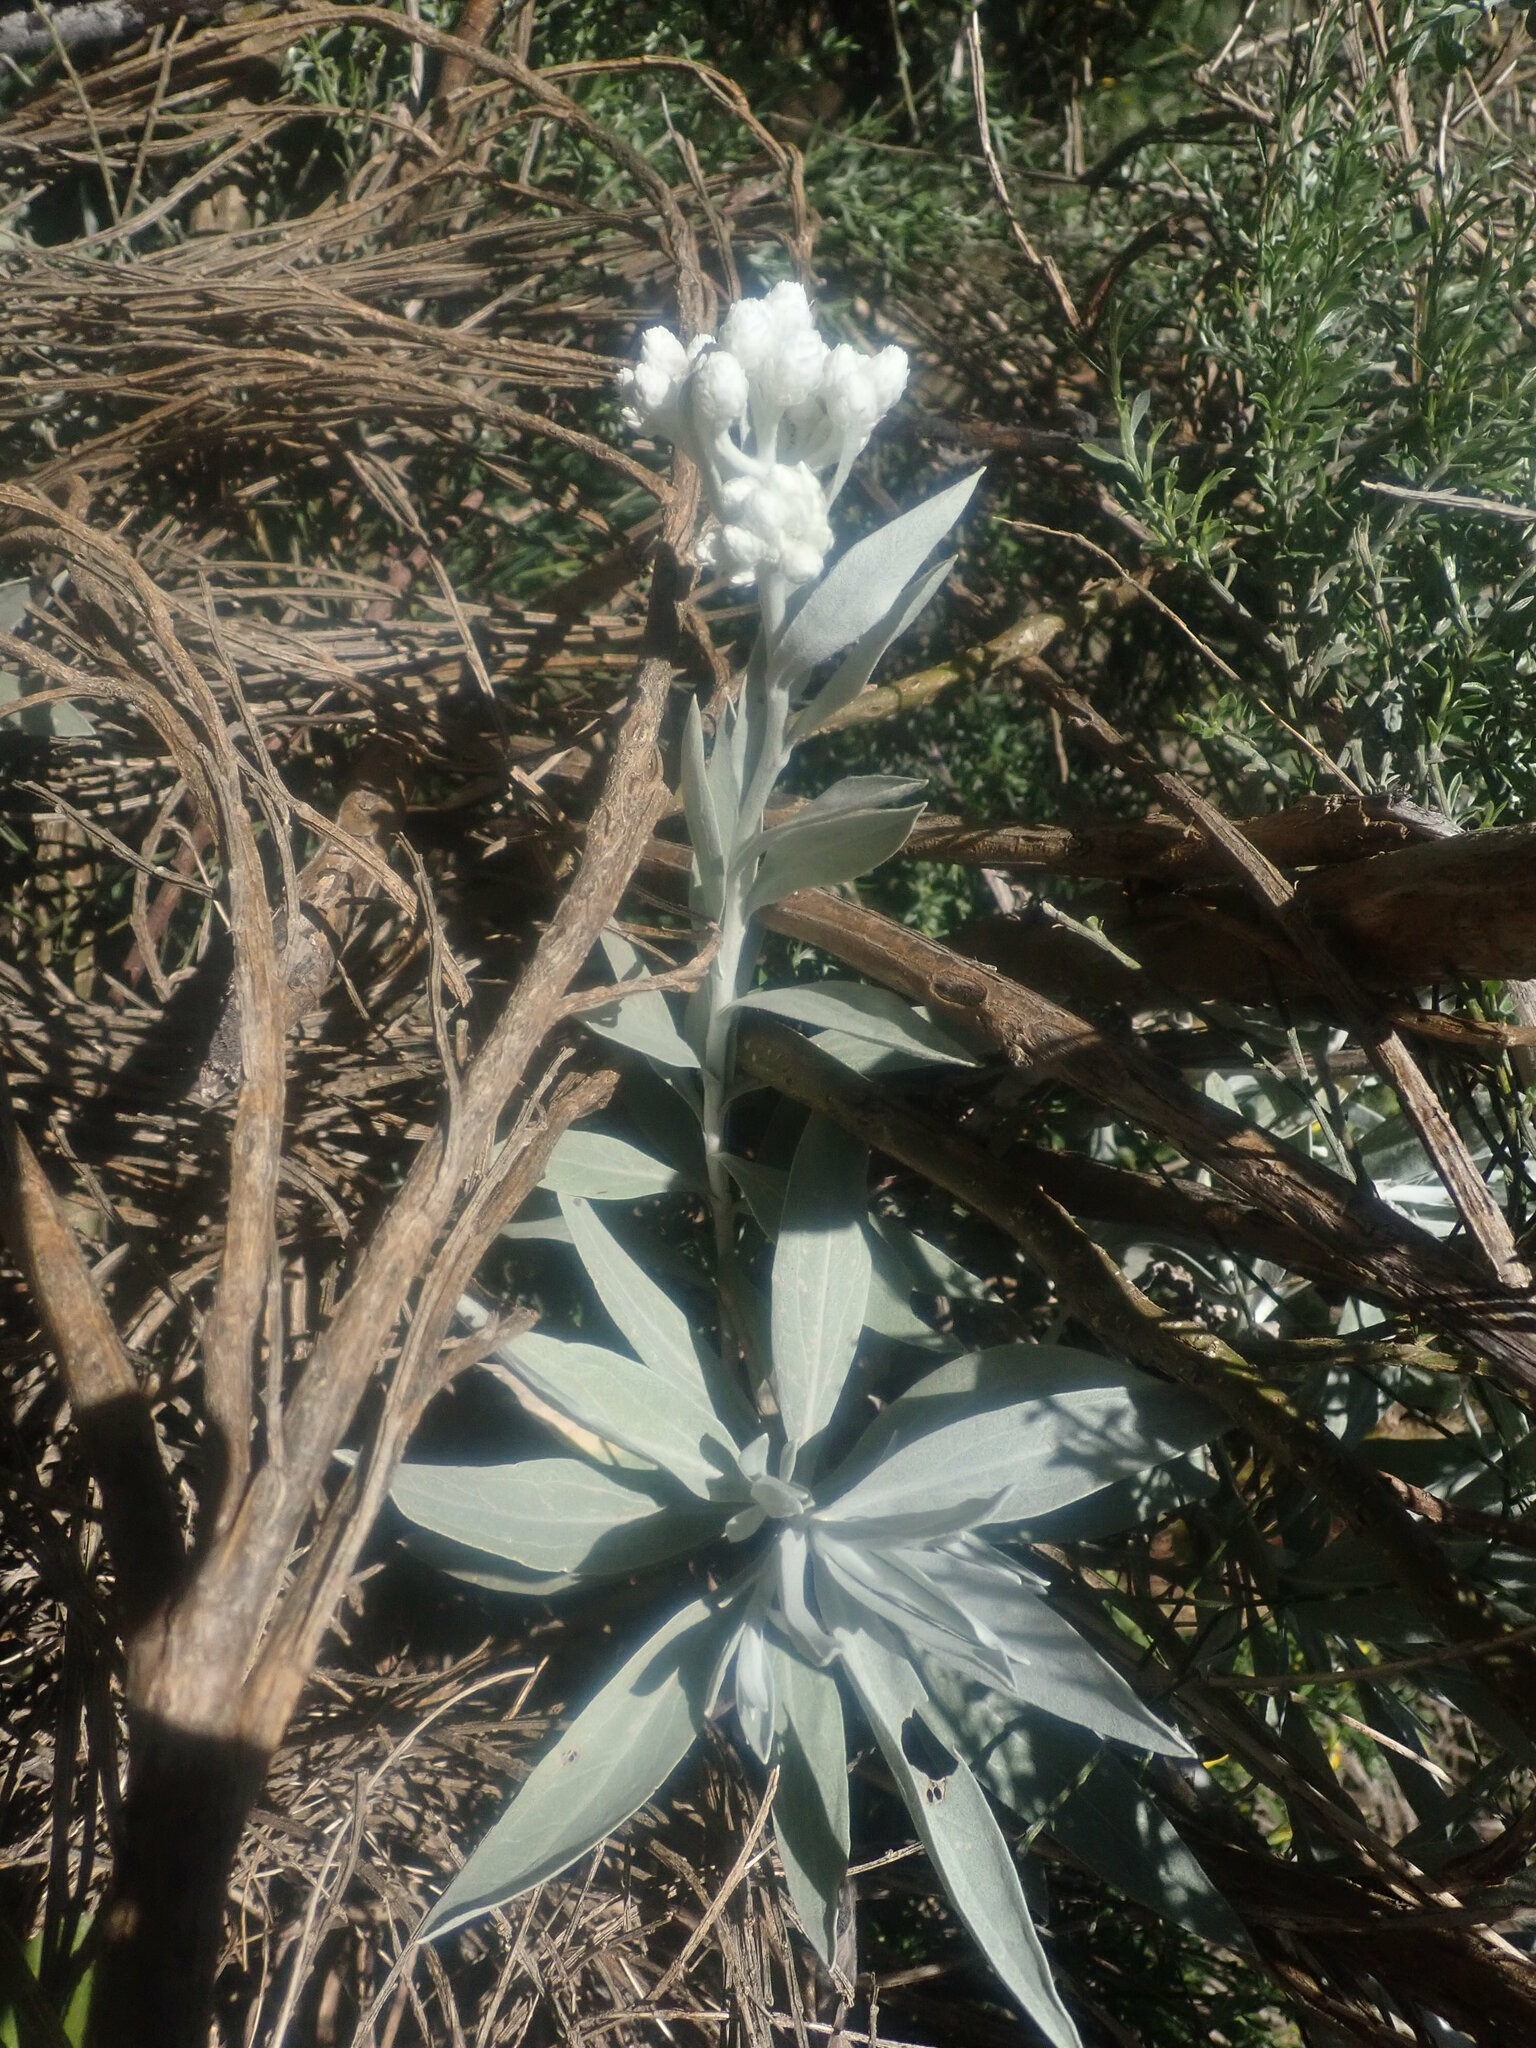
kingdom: Plantae
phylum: Tracheophyta
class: Magnoliopsida
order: Asterales
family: Asteraceae
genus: Helichrysum
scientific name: Helichrysum melaleucum
